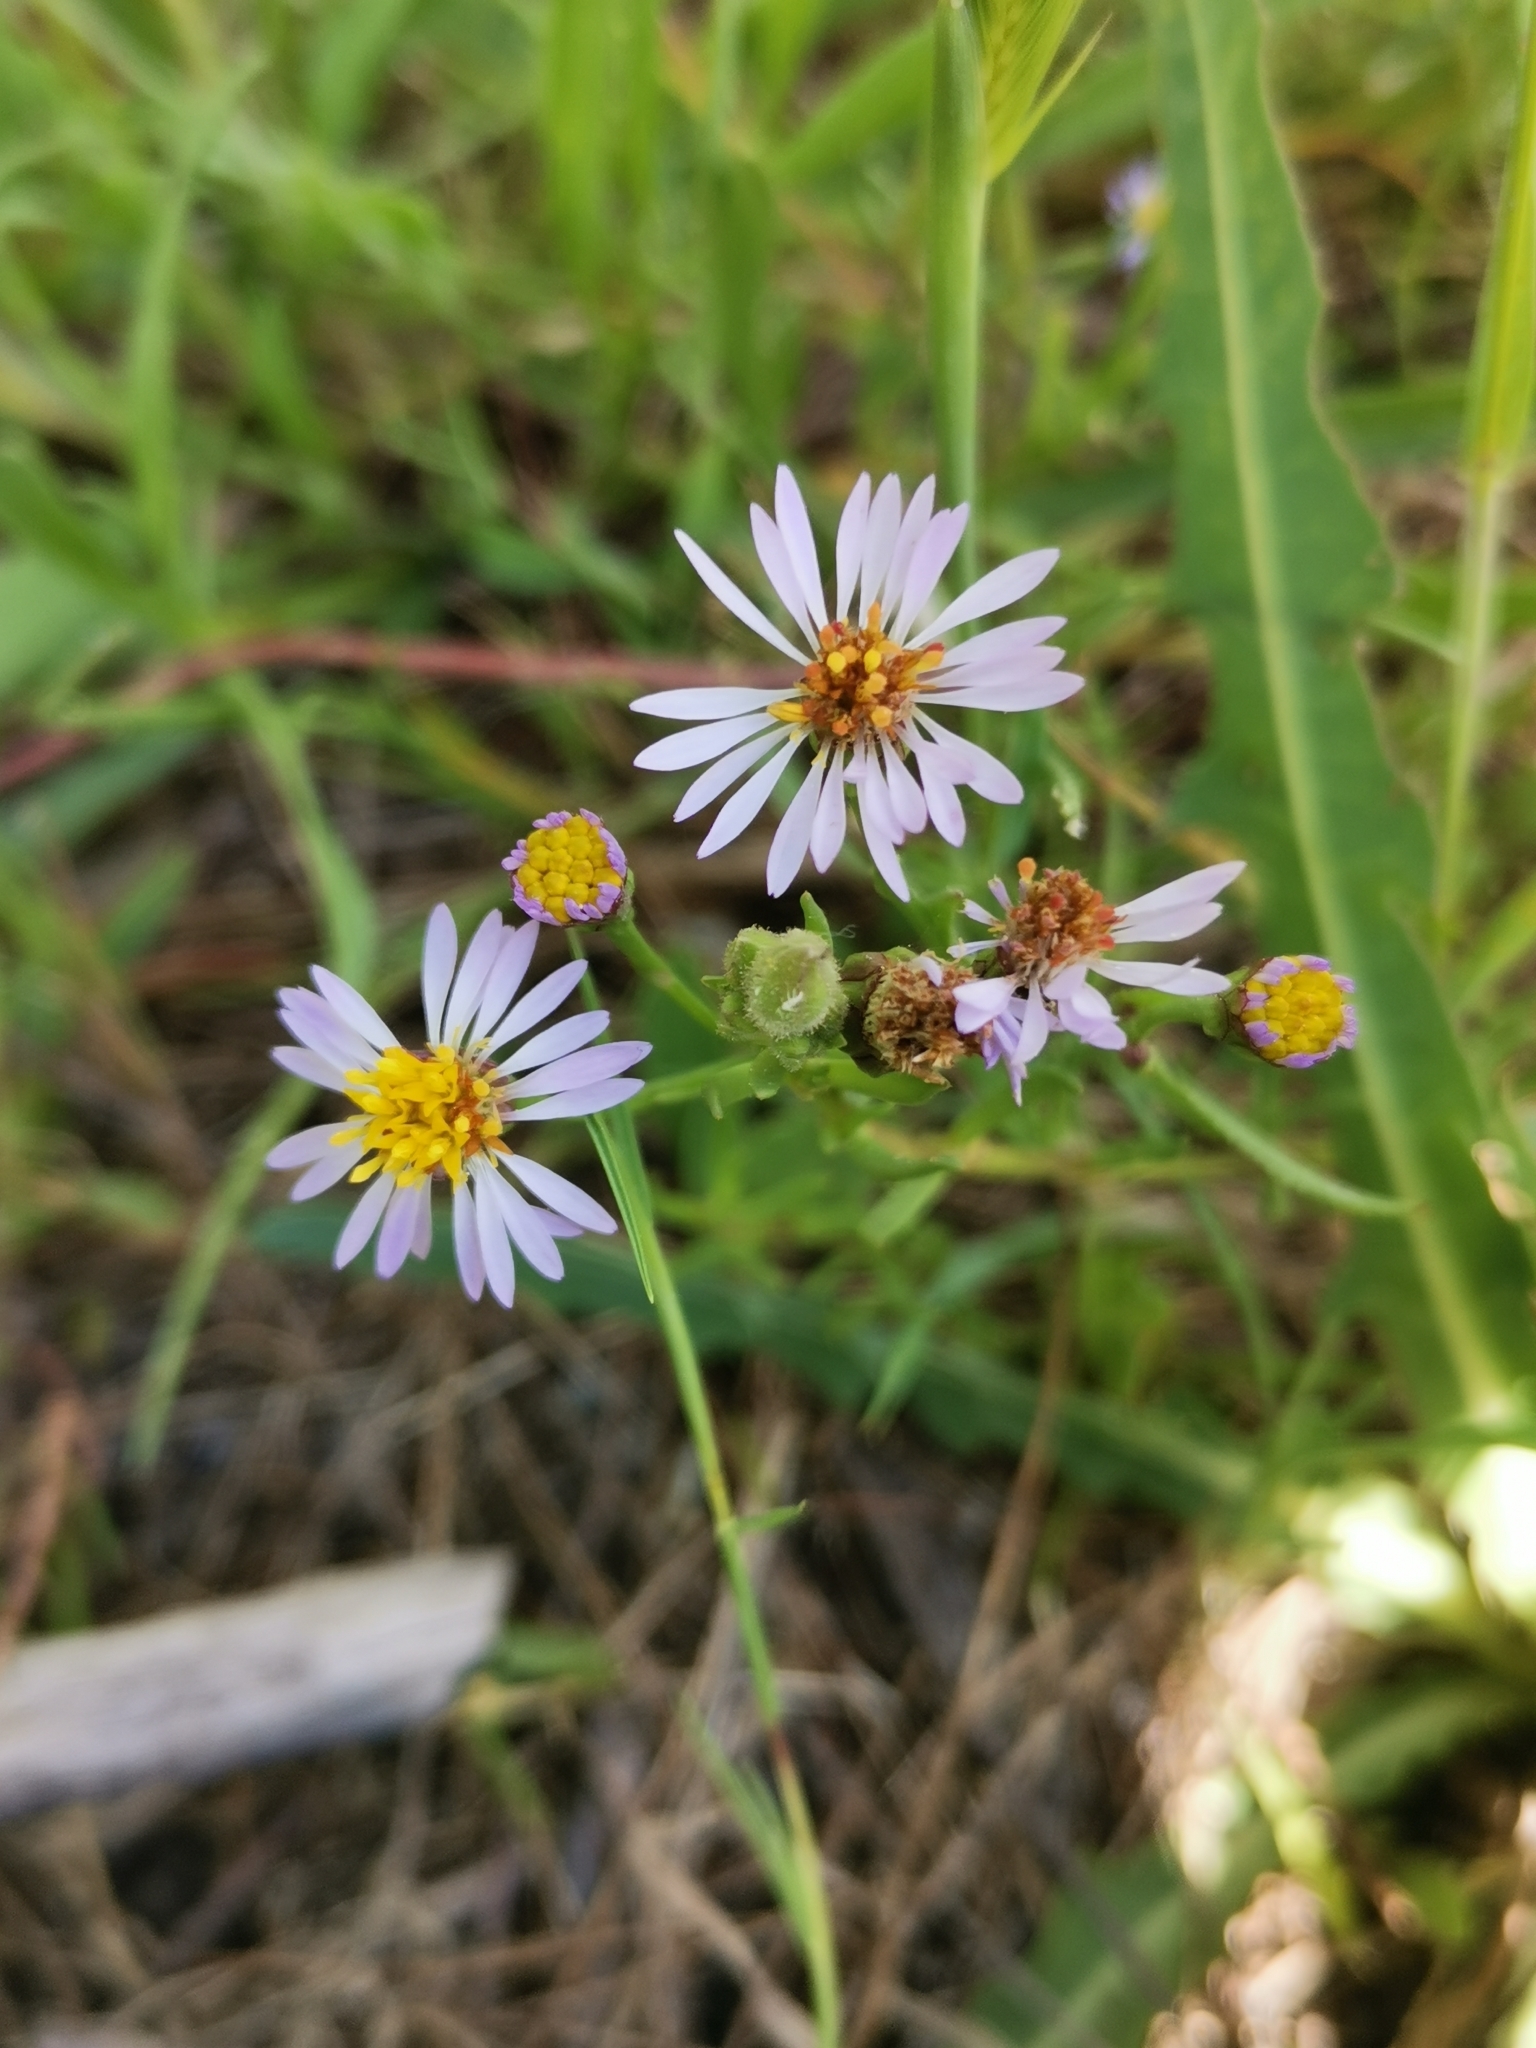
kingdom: Plantae
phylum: Tracheophyta
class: Magnoliopsida
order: Asterales
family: Asteraceae
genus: Tripolium
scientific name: Tripolium pannonicum
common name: Sea aster
